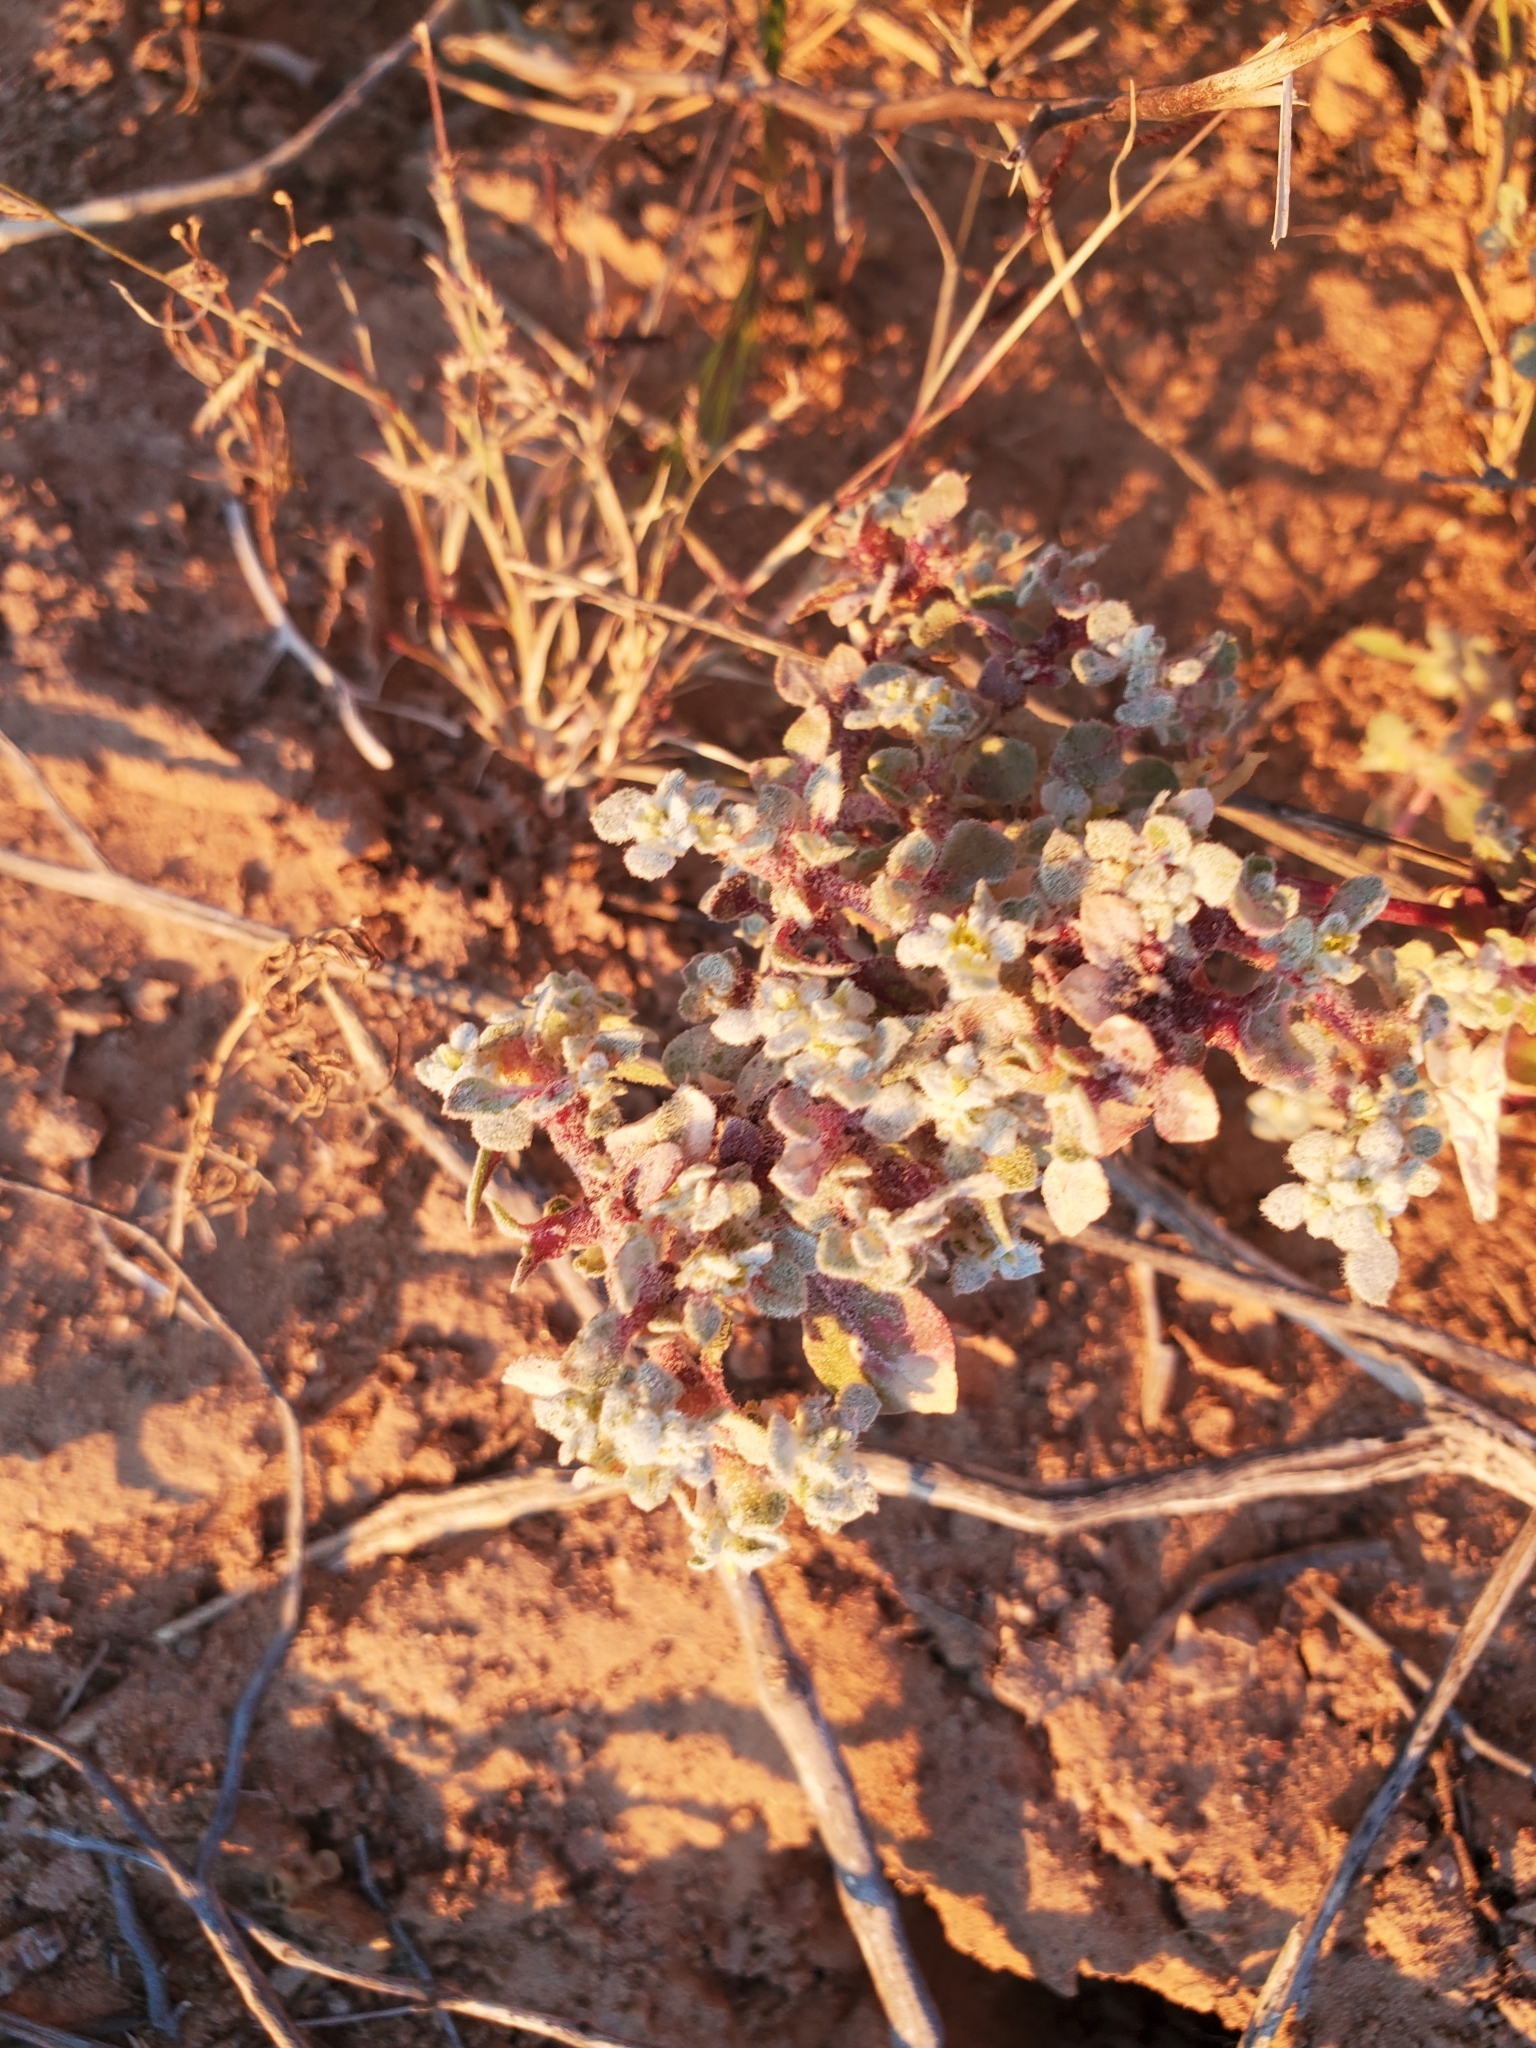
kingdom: Plantae
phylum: Tracheophyta
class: Magnoliopsida
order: Caryophyllales
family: Amaranthaceae
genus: Tidestromia
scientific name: Tidestromia lanuginosa
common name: Woolly tidestromia
